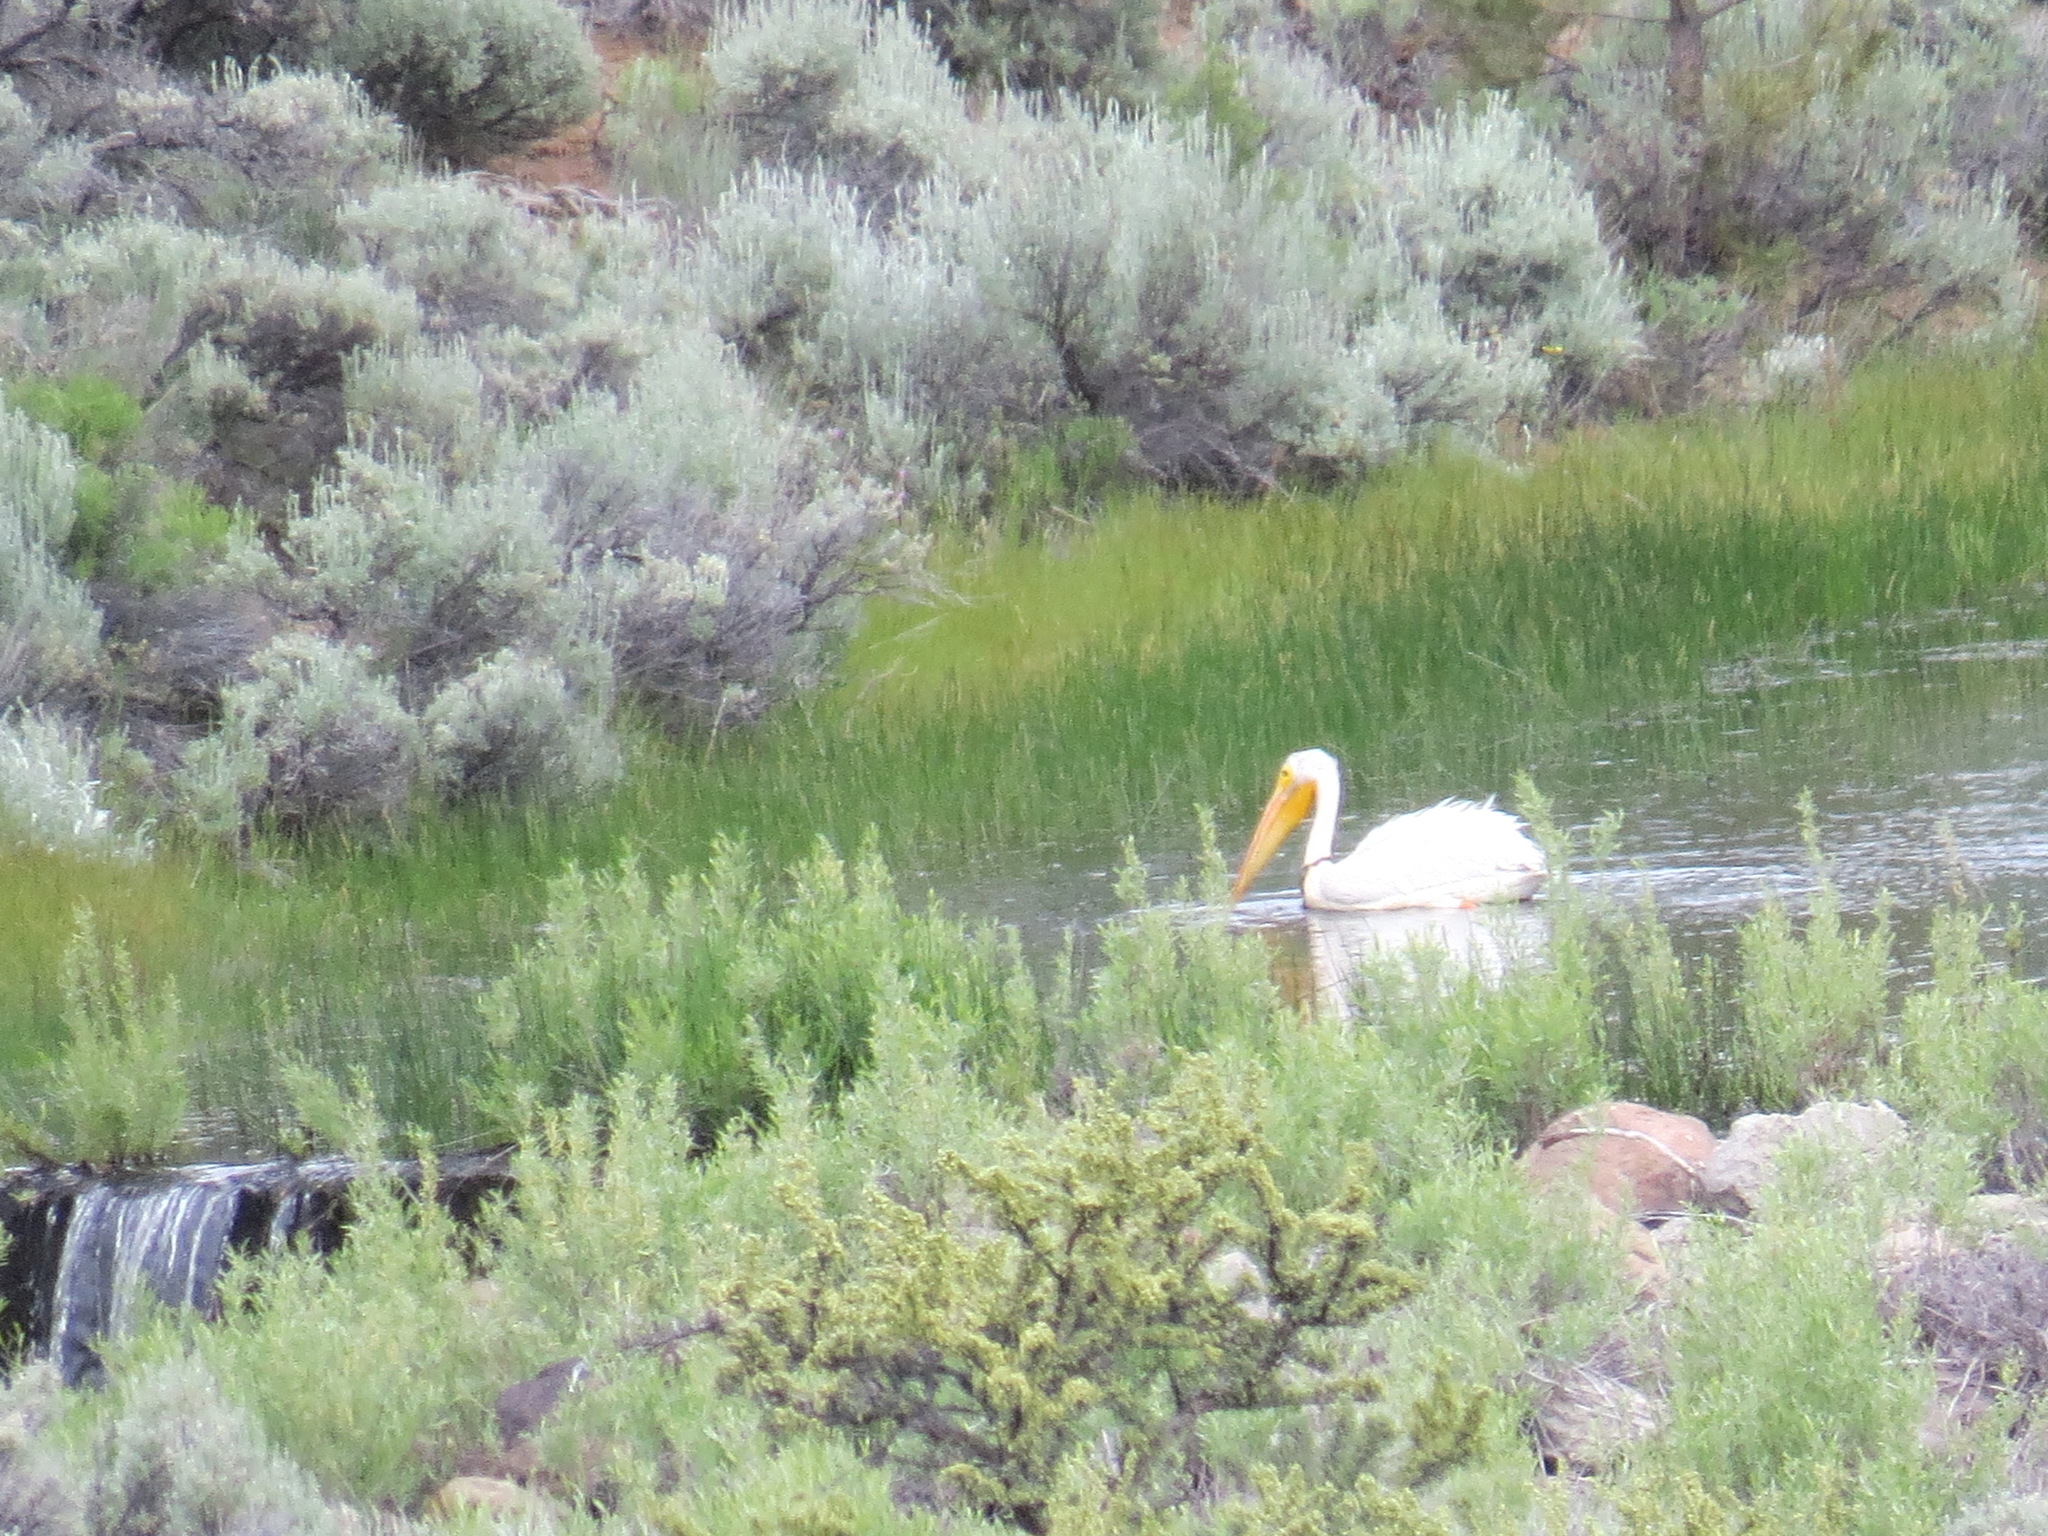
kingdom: Animalia
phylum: Chordata
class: Aves
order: Pelecaniformes
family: Pelecanidae
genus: Pelecanus
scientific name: Pelecanus erythrorhynchos
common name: American white pelican
